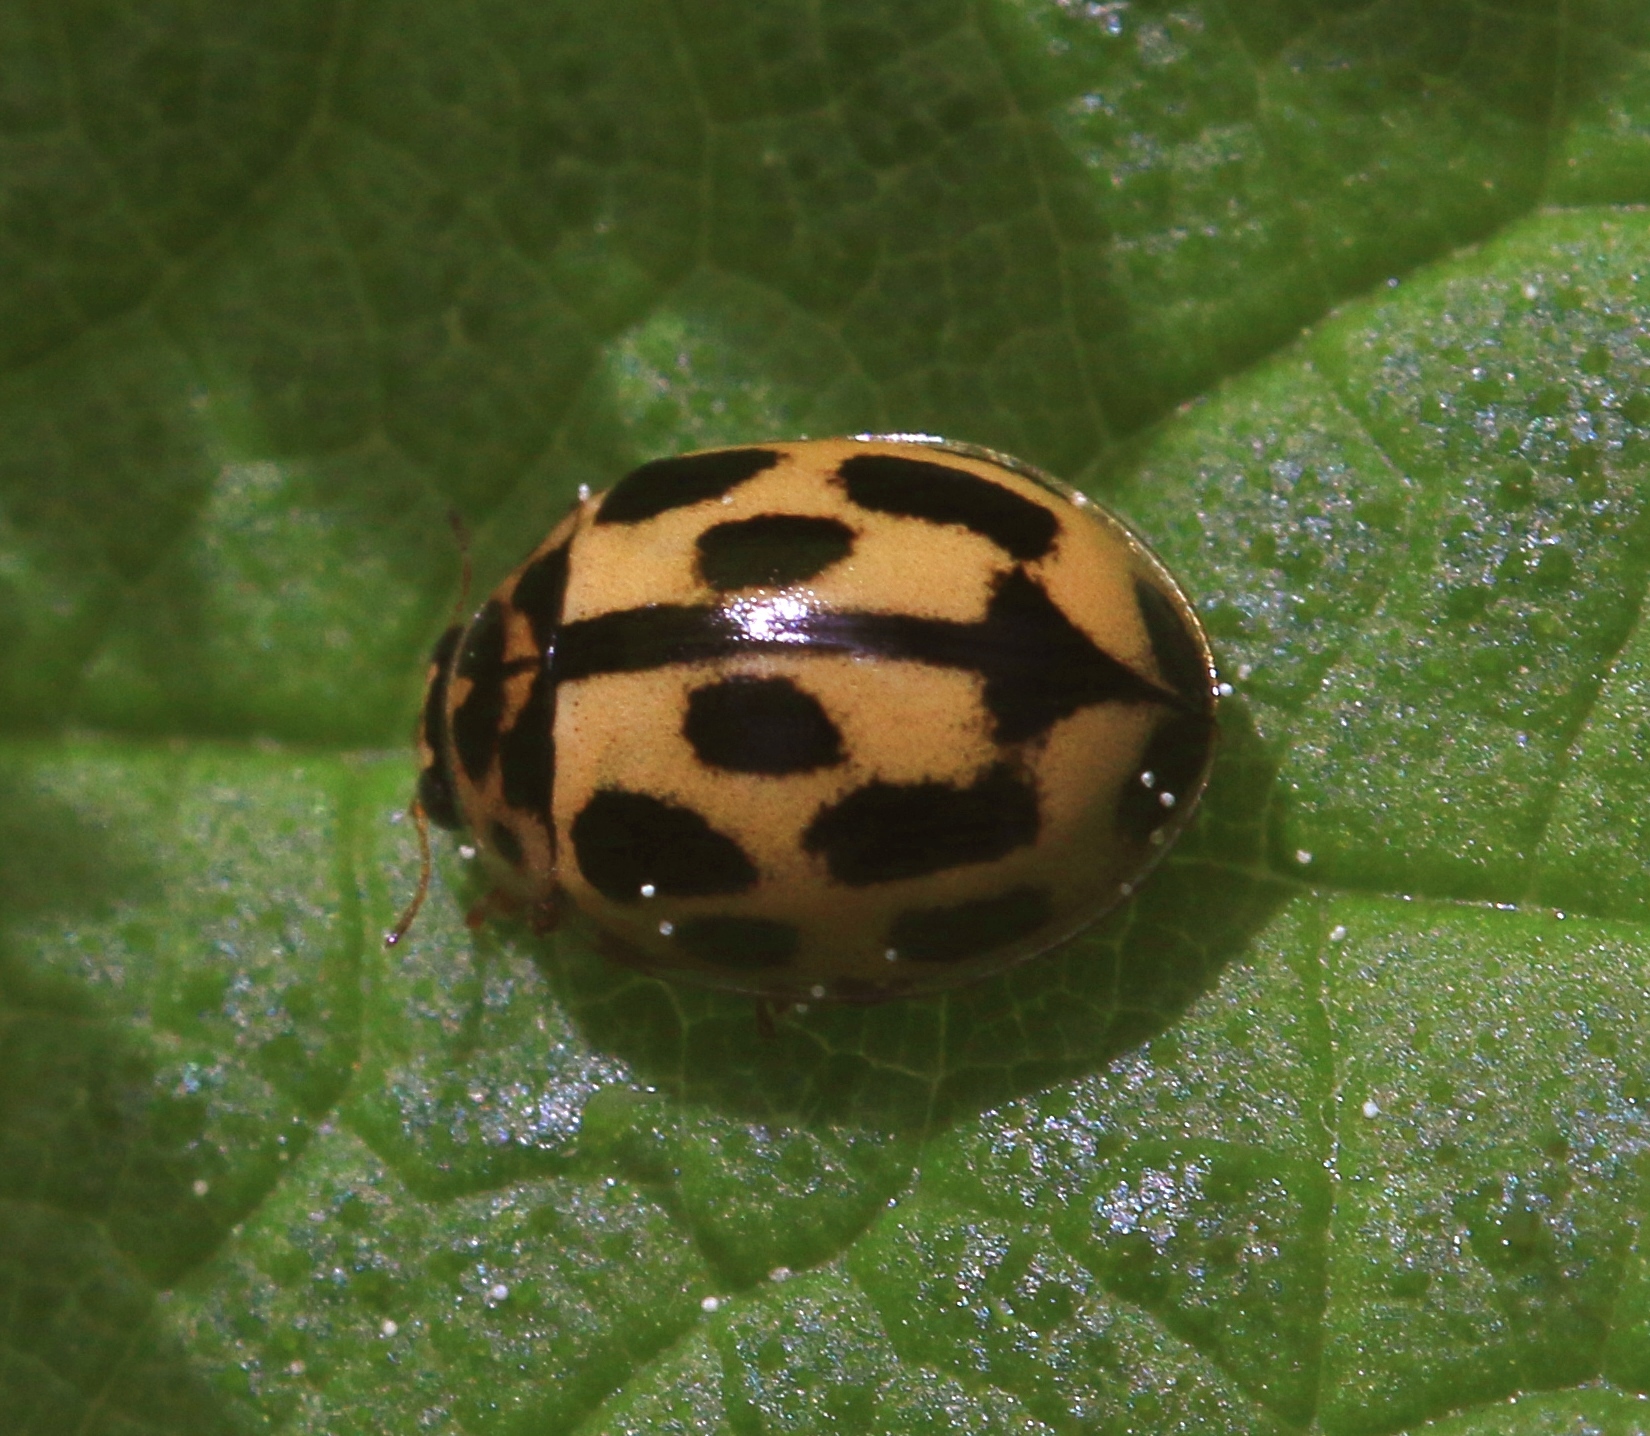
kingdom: Animalia
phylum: Arthropoda
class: Insecta
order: Coleoptera
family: Coccinellidae
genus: Propylaea
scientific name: Propylaea quatuordecimpunctata
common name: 14-spotted ladybird beetle
